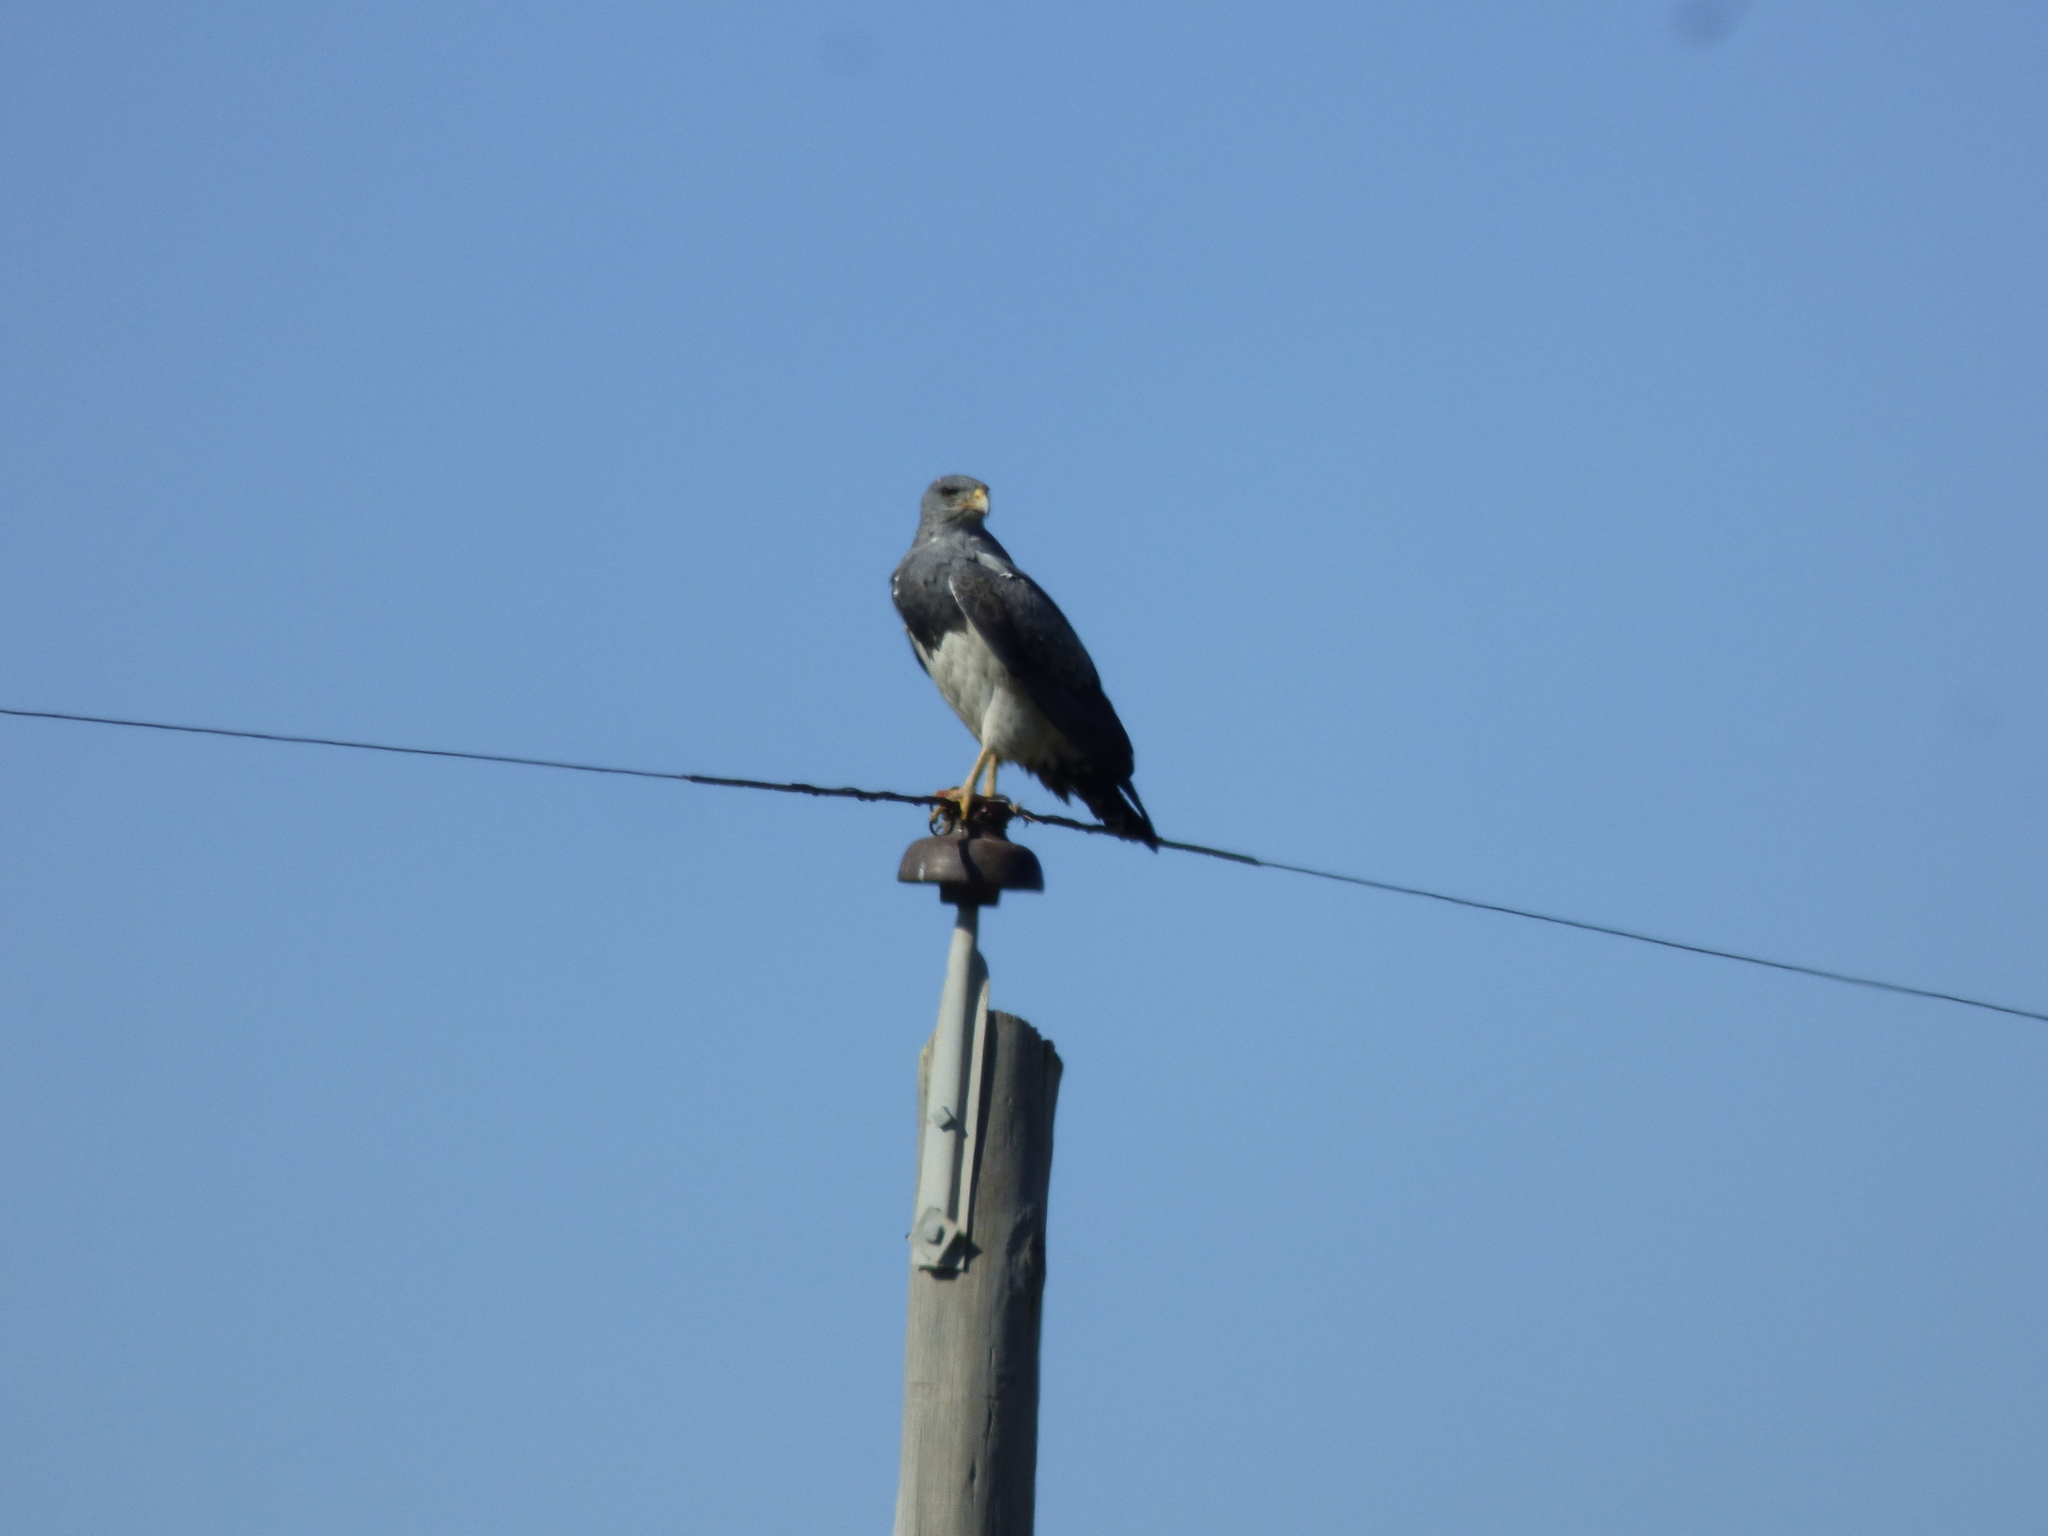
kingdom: Animalia
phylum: Chordata
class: Aves
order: Accipitriformes
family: Accipitridae
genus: Geranoaetus
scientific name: Geranoaetus melanoleucus
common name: Black-chested buzzard-eagle
